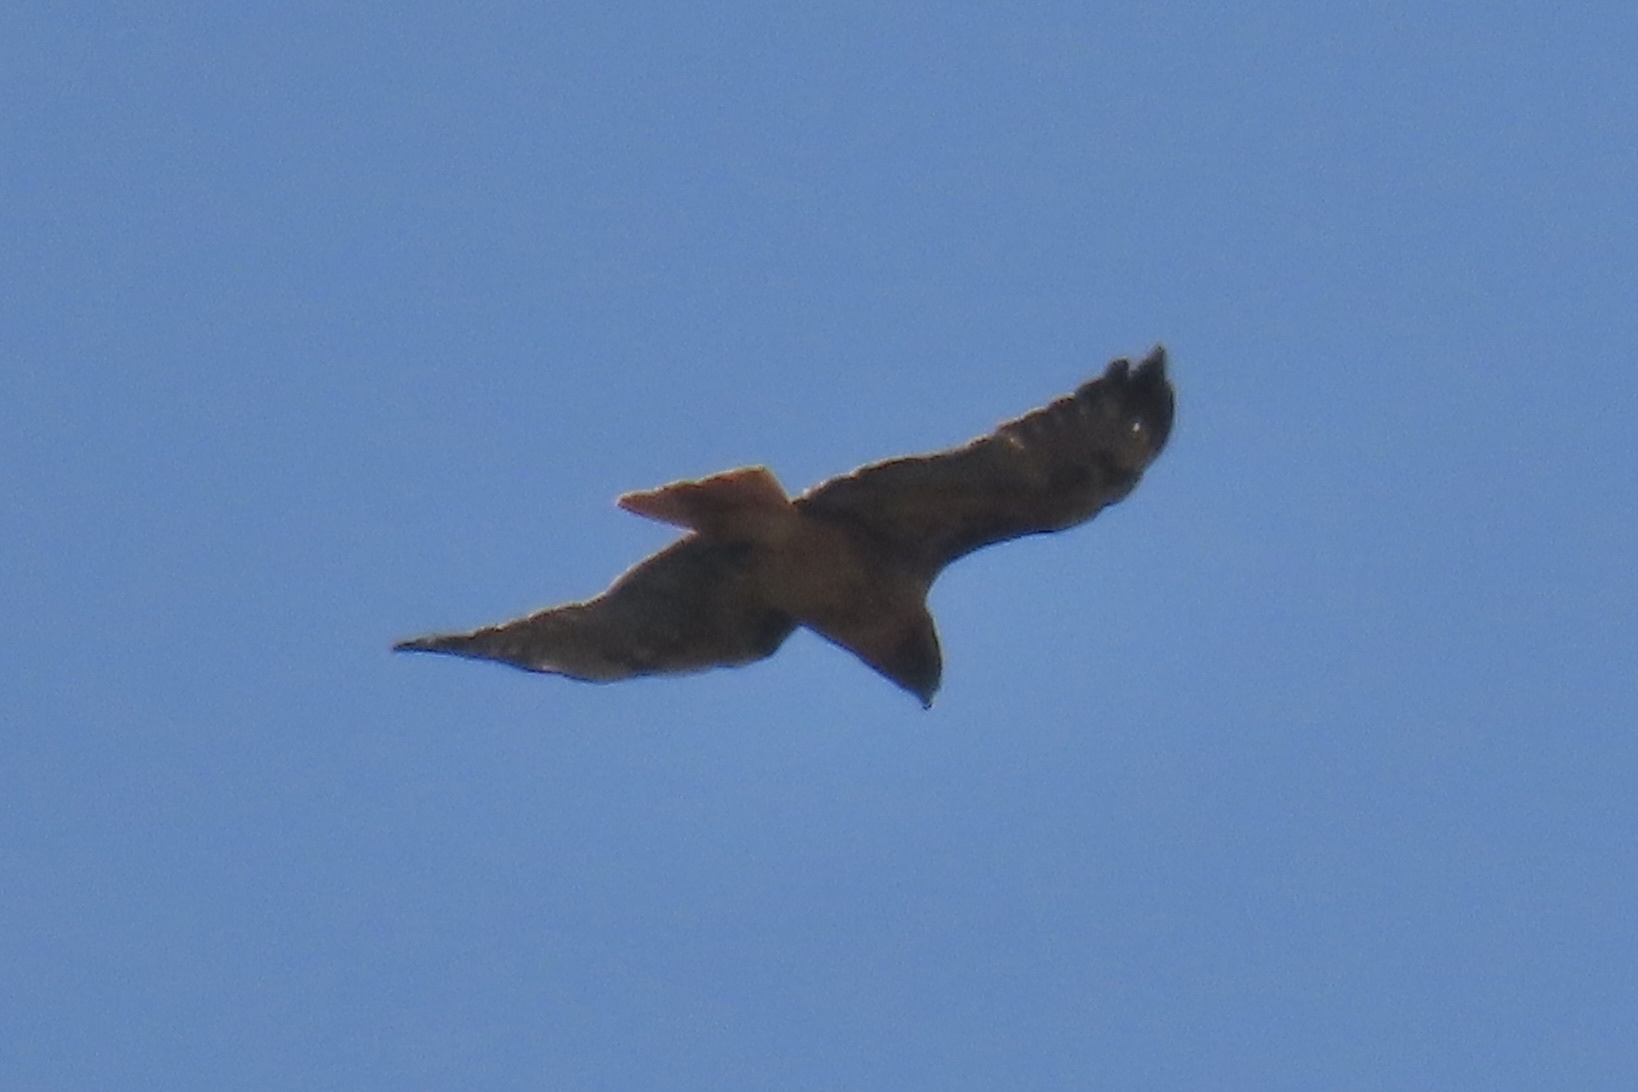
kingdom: Animalia
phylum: Chordata
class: Aves
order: Accipitriformes
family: Accipitridae
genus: Buteo
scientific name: Buteo jamaicensis
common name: Red-tailed hawk
